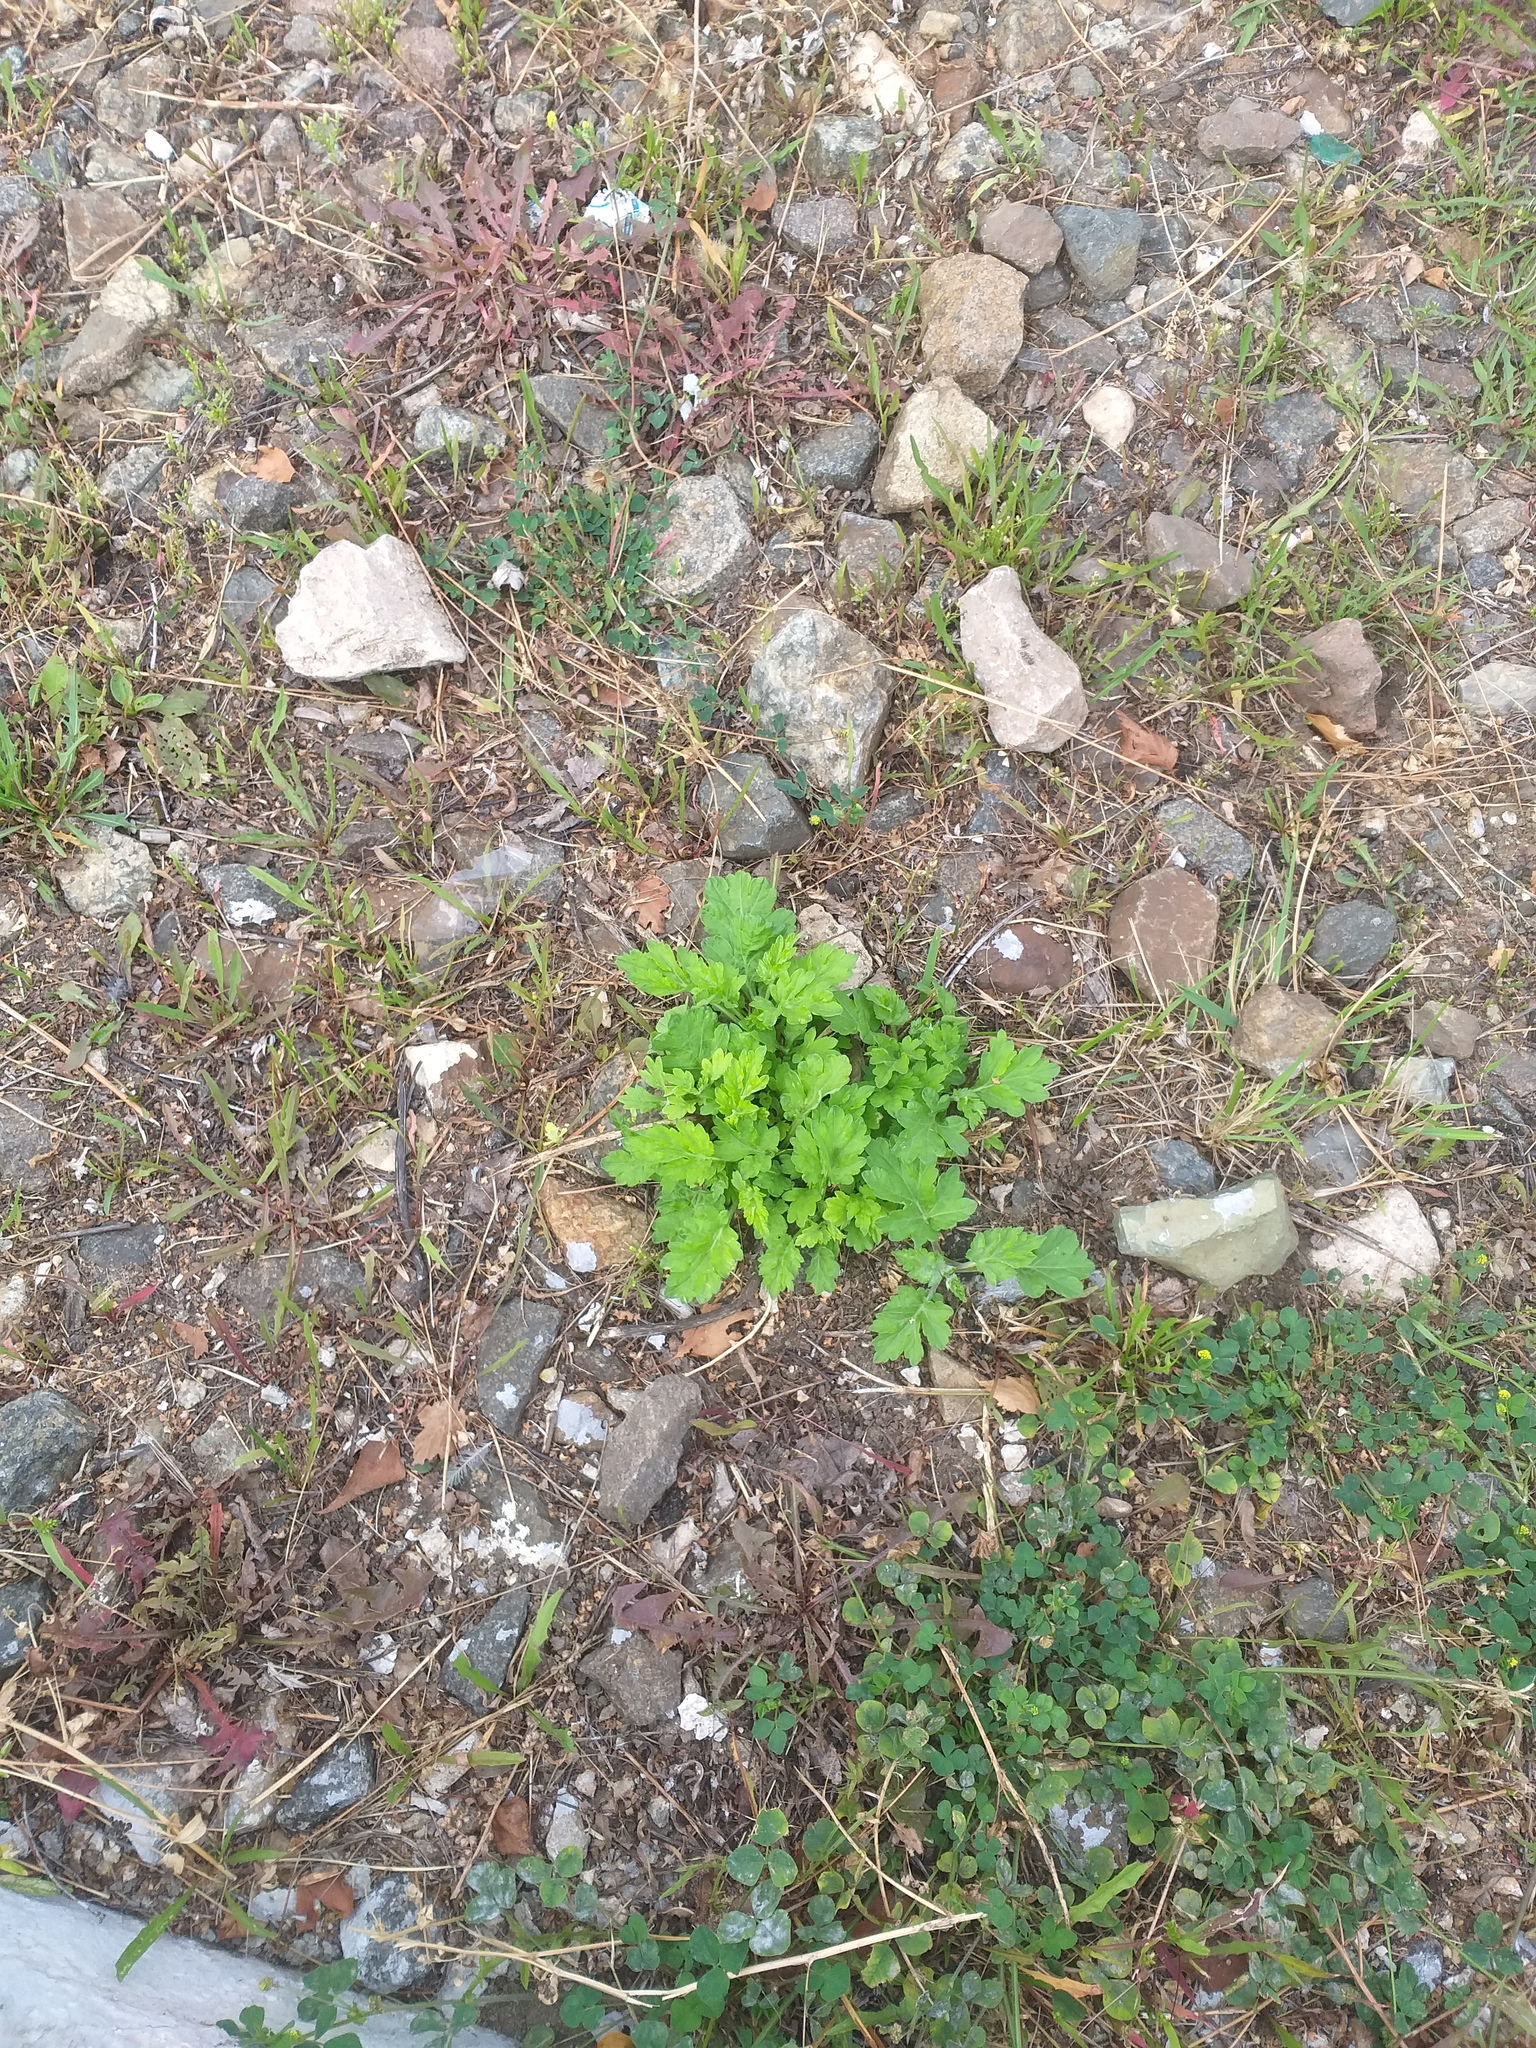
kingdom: Plantae
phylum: Tracheophyta
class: Magnoliopsida
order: Asterales
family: Asteraceae
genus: Artemisia
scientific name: Artemisia vulgaris
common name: Mugwort
